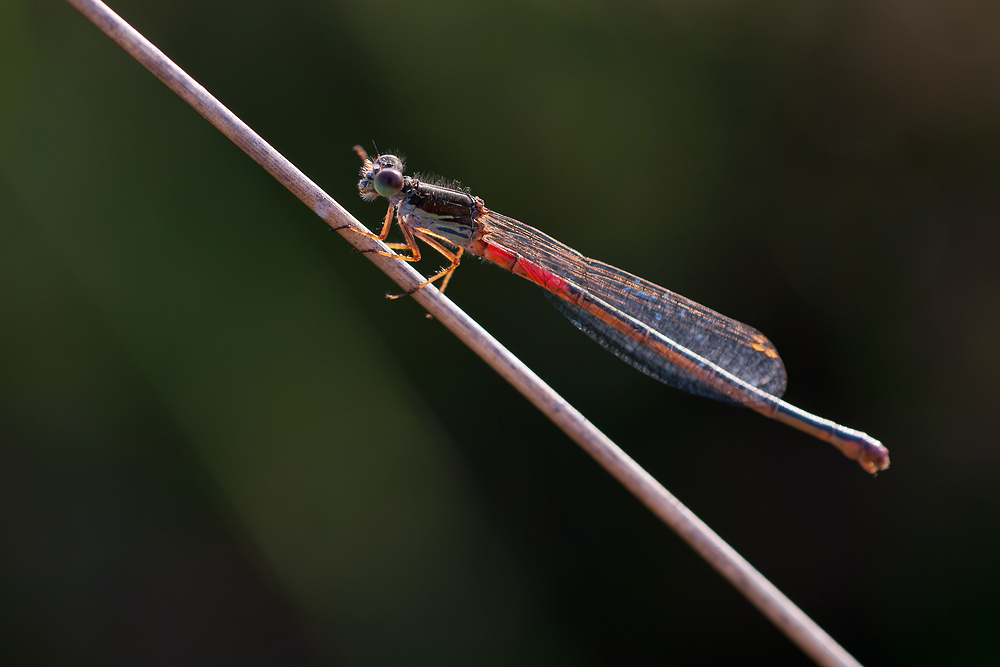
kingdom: Animalia
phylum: Arthropoda
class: Insecta
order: Odonata
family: Coenagrionidae
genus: Ceriagrion
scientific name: Ceriagrion tenellum
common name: Small red damselfly
